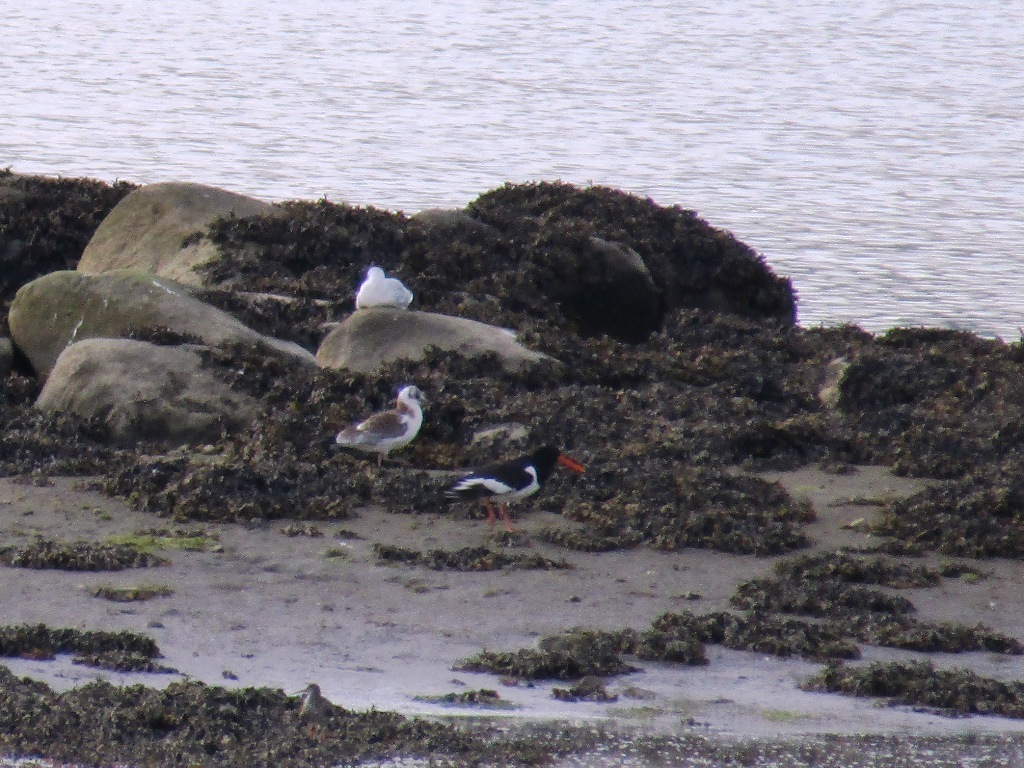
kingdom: Animalia
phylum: Chordata
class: Aves
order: Charadriiformes
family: Haematopodidae
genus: Haematopus
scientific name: Haematopus ostralegus
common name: Eurasian oystercatcher
